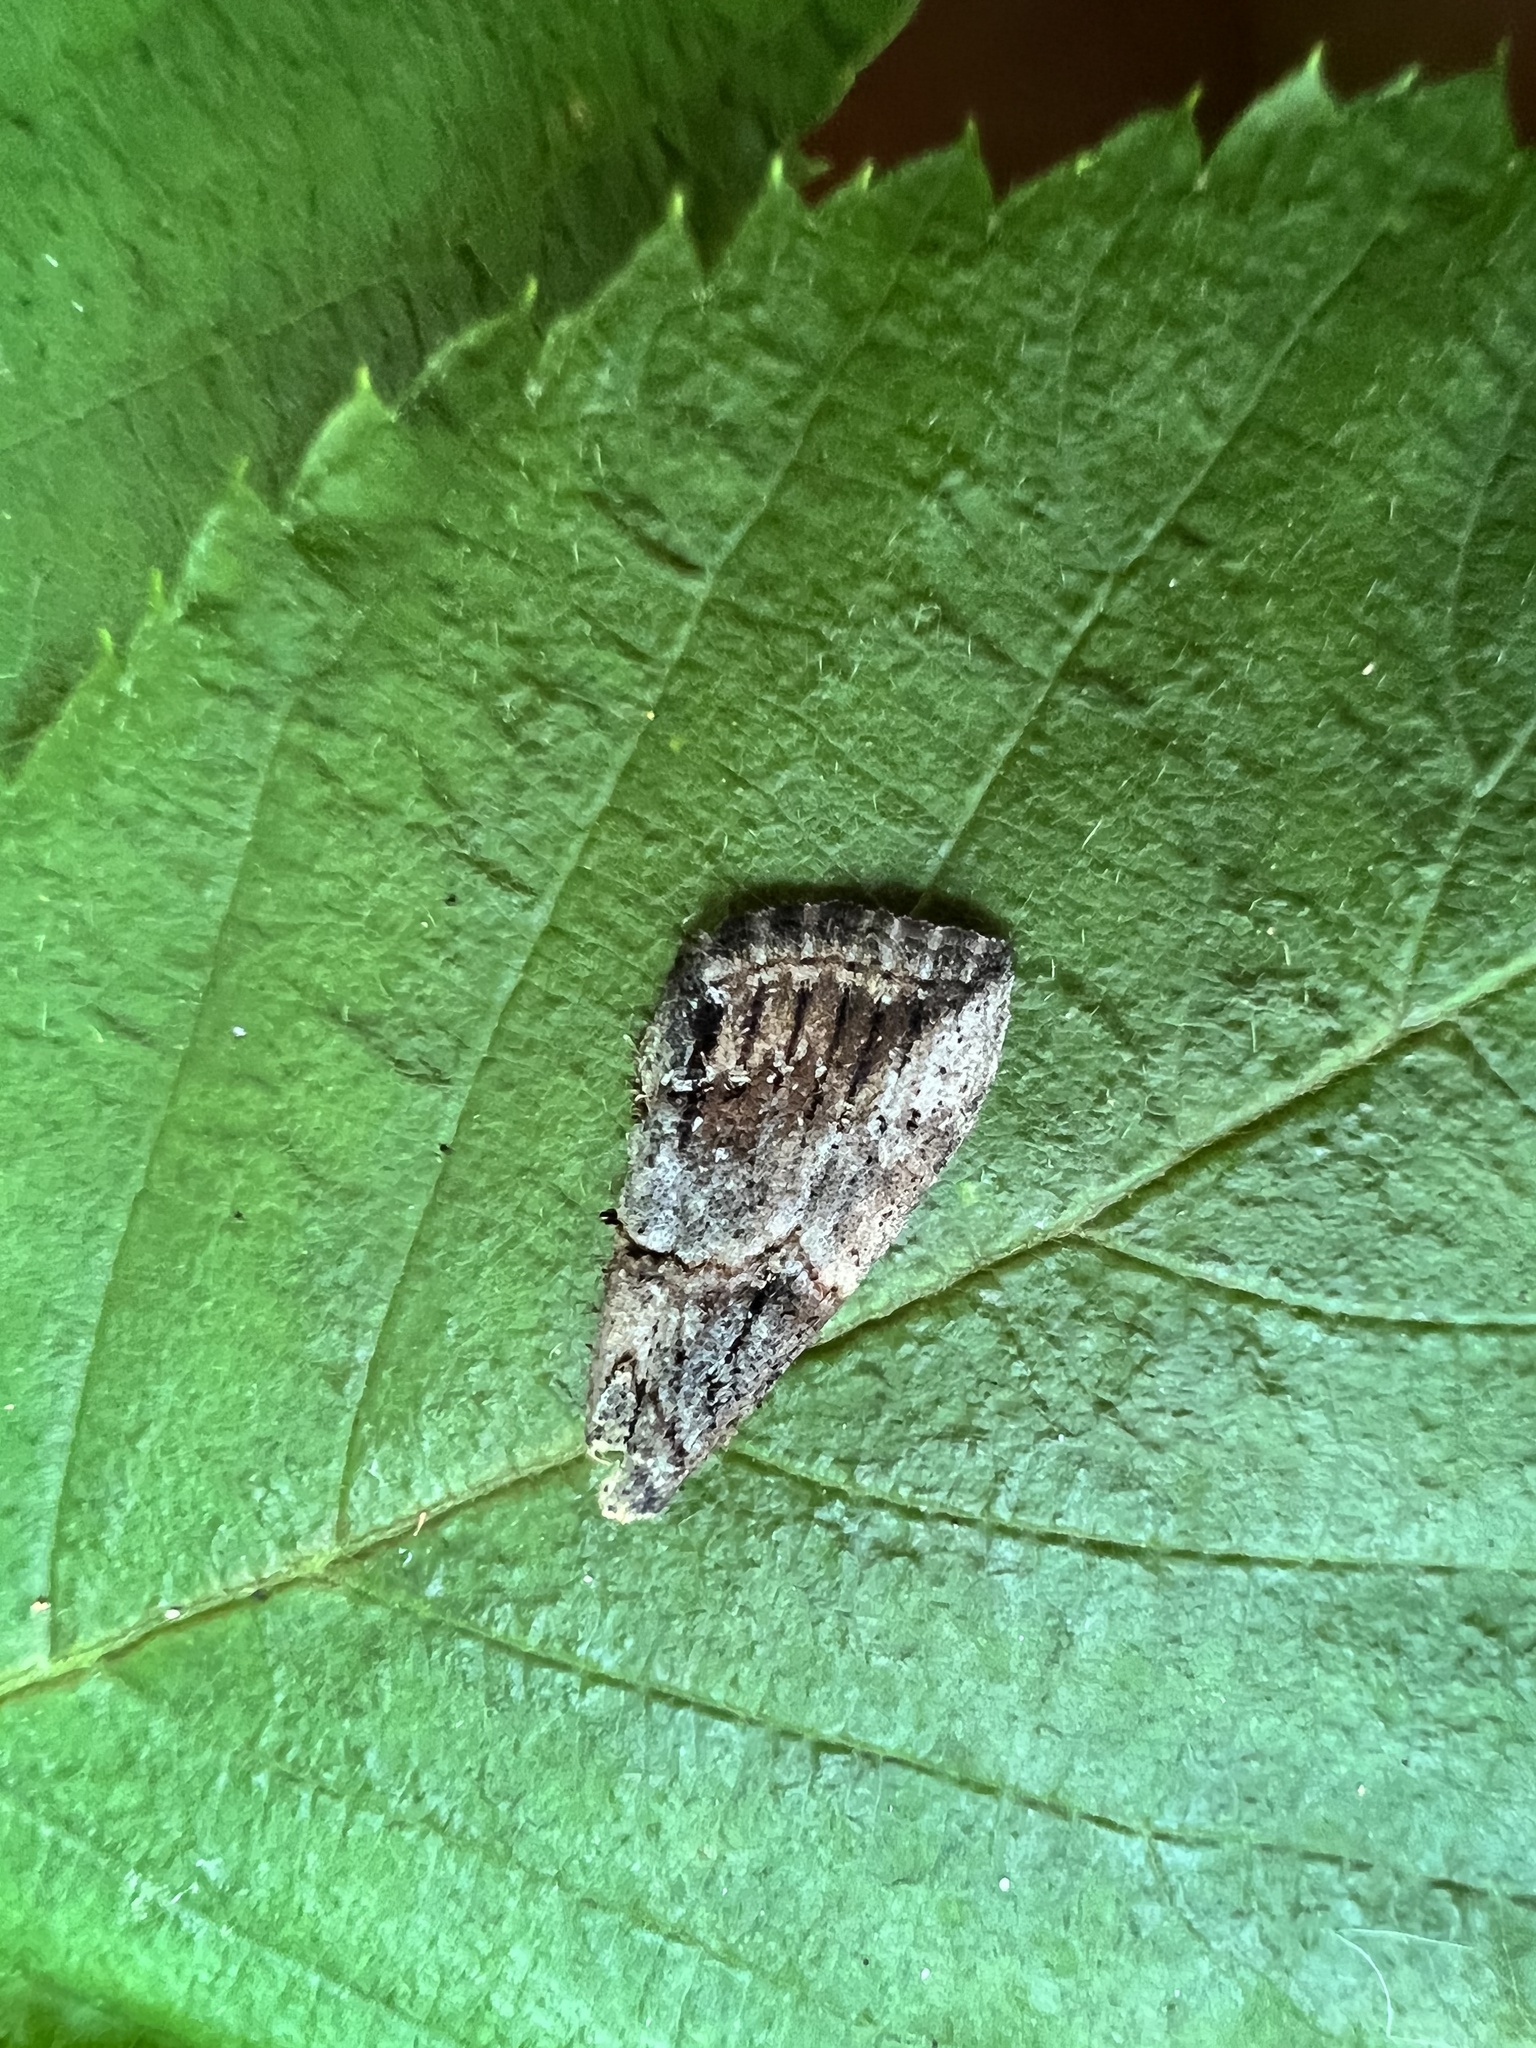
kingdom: Animalia
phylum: Arthropoda
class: Insecta
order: Lepidoptera
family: Erebidae
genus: Hypena
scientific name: Hypena scabra
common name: Green cloverworm
